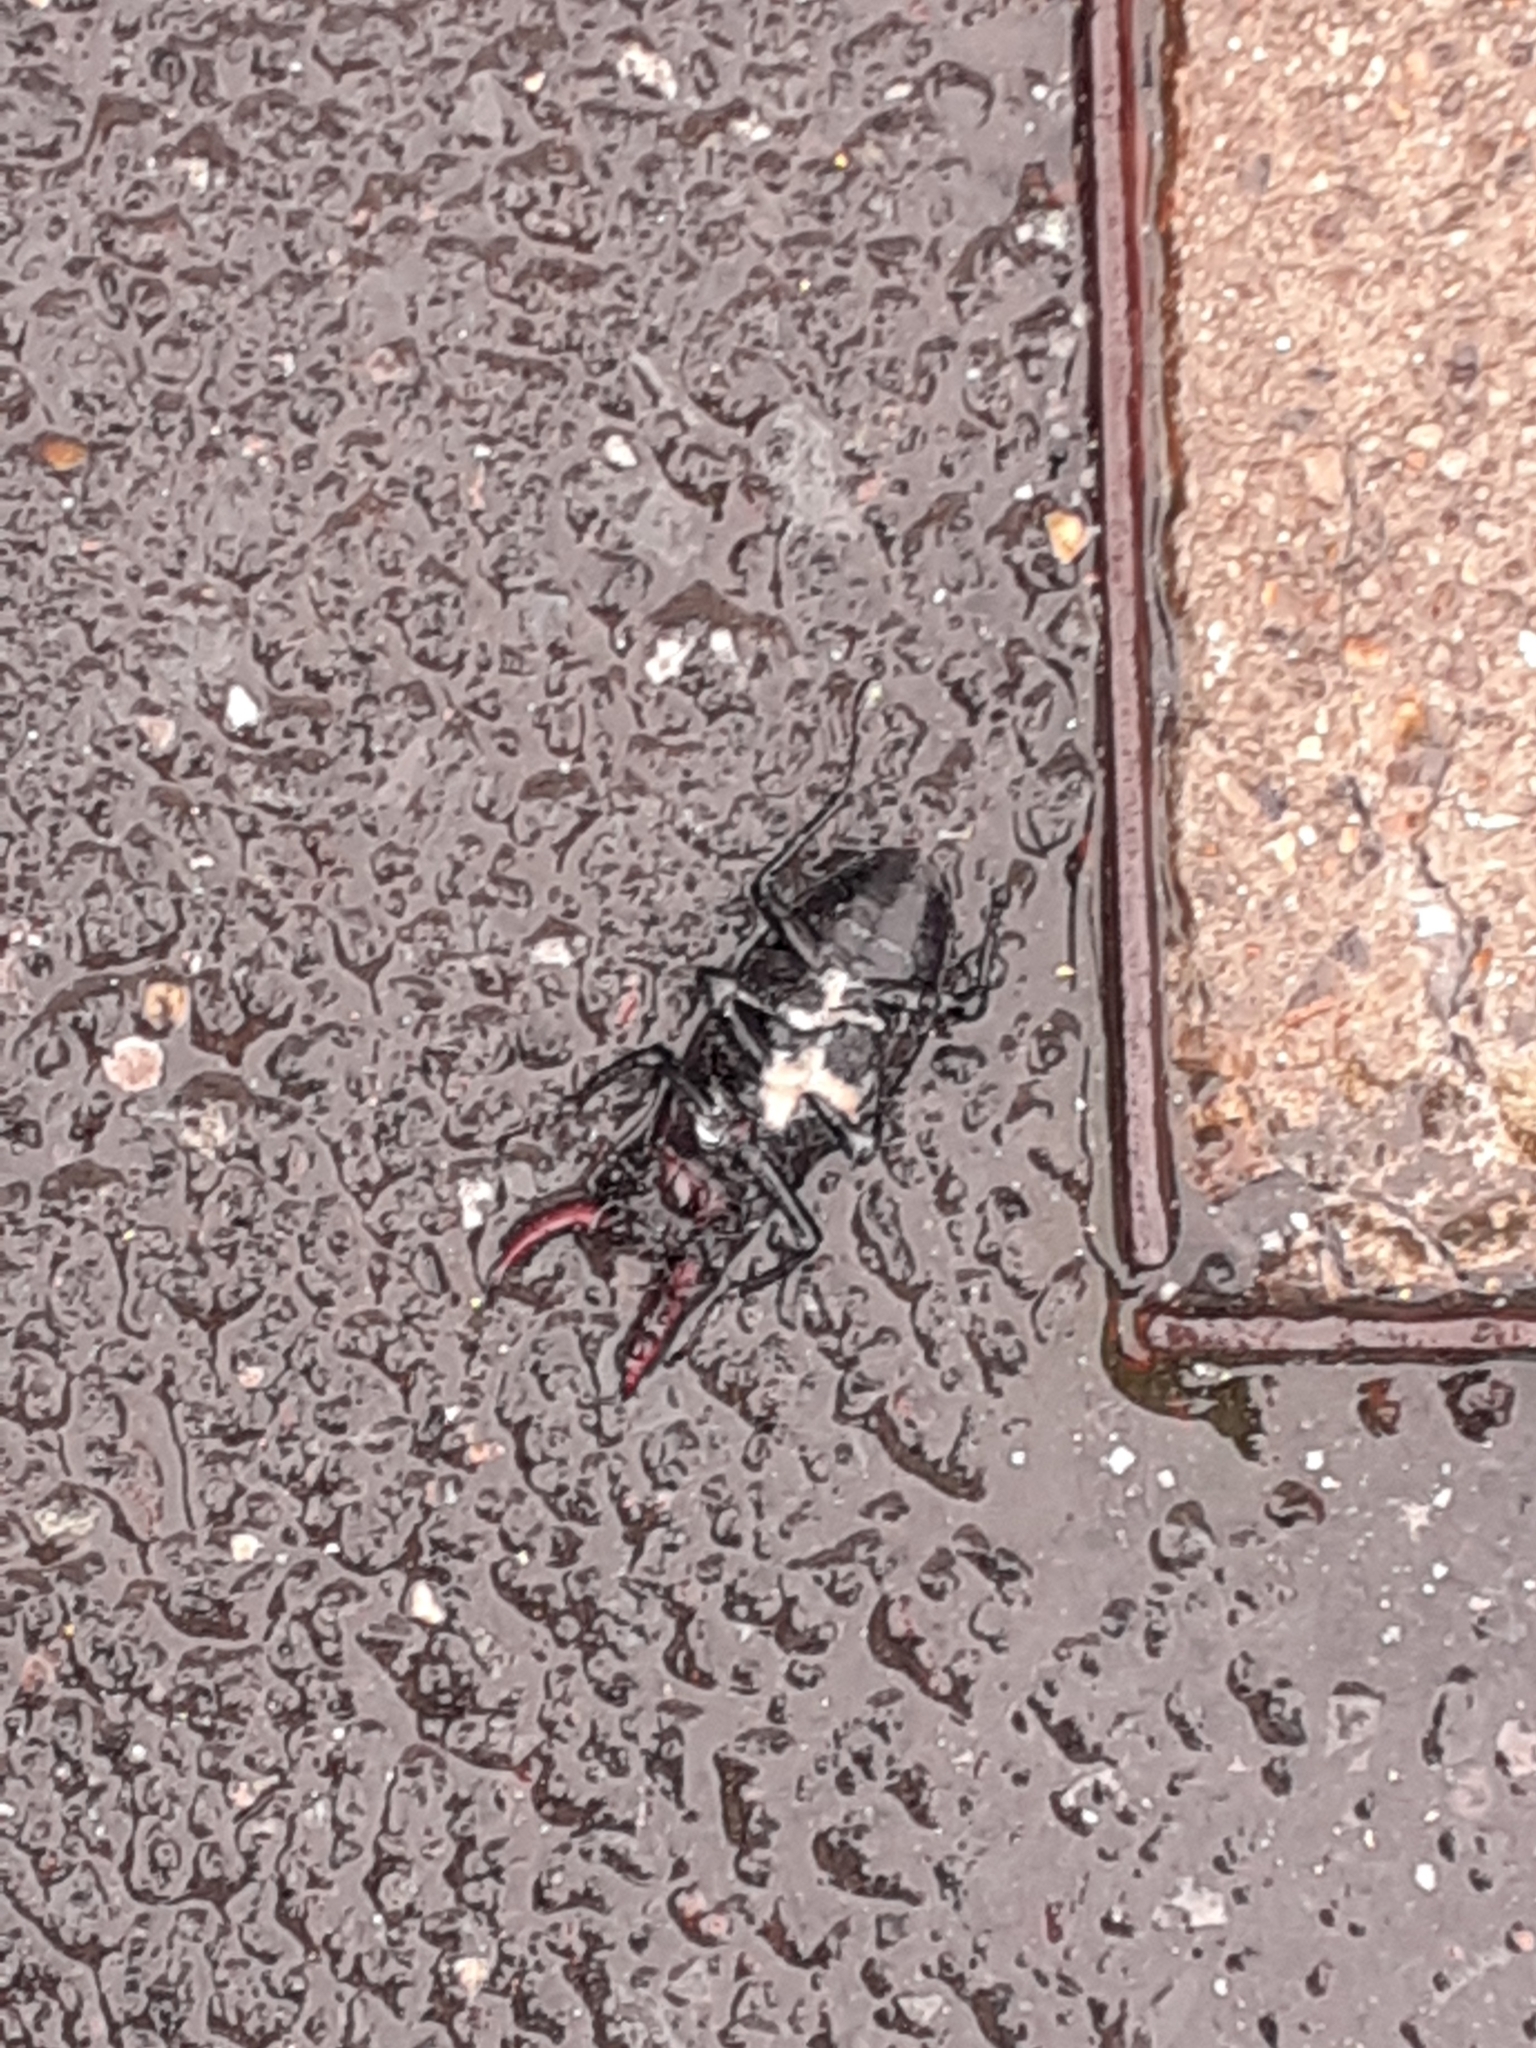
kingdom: Animalia
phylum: Arthropoda
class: Insecta
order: Coleoptera
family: Lucanidae
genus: Lucanus
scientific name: Lucanus cervus
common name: Stag beetle
